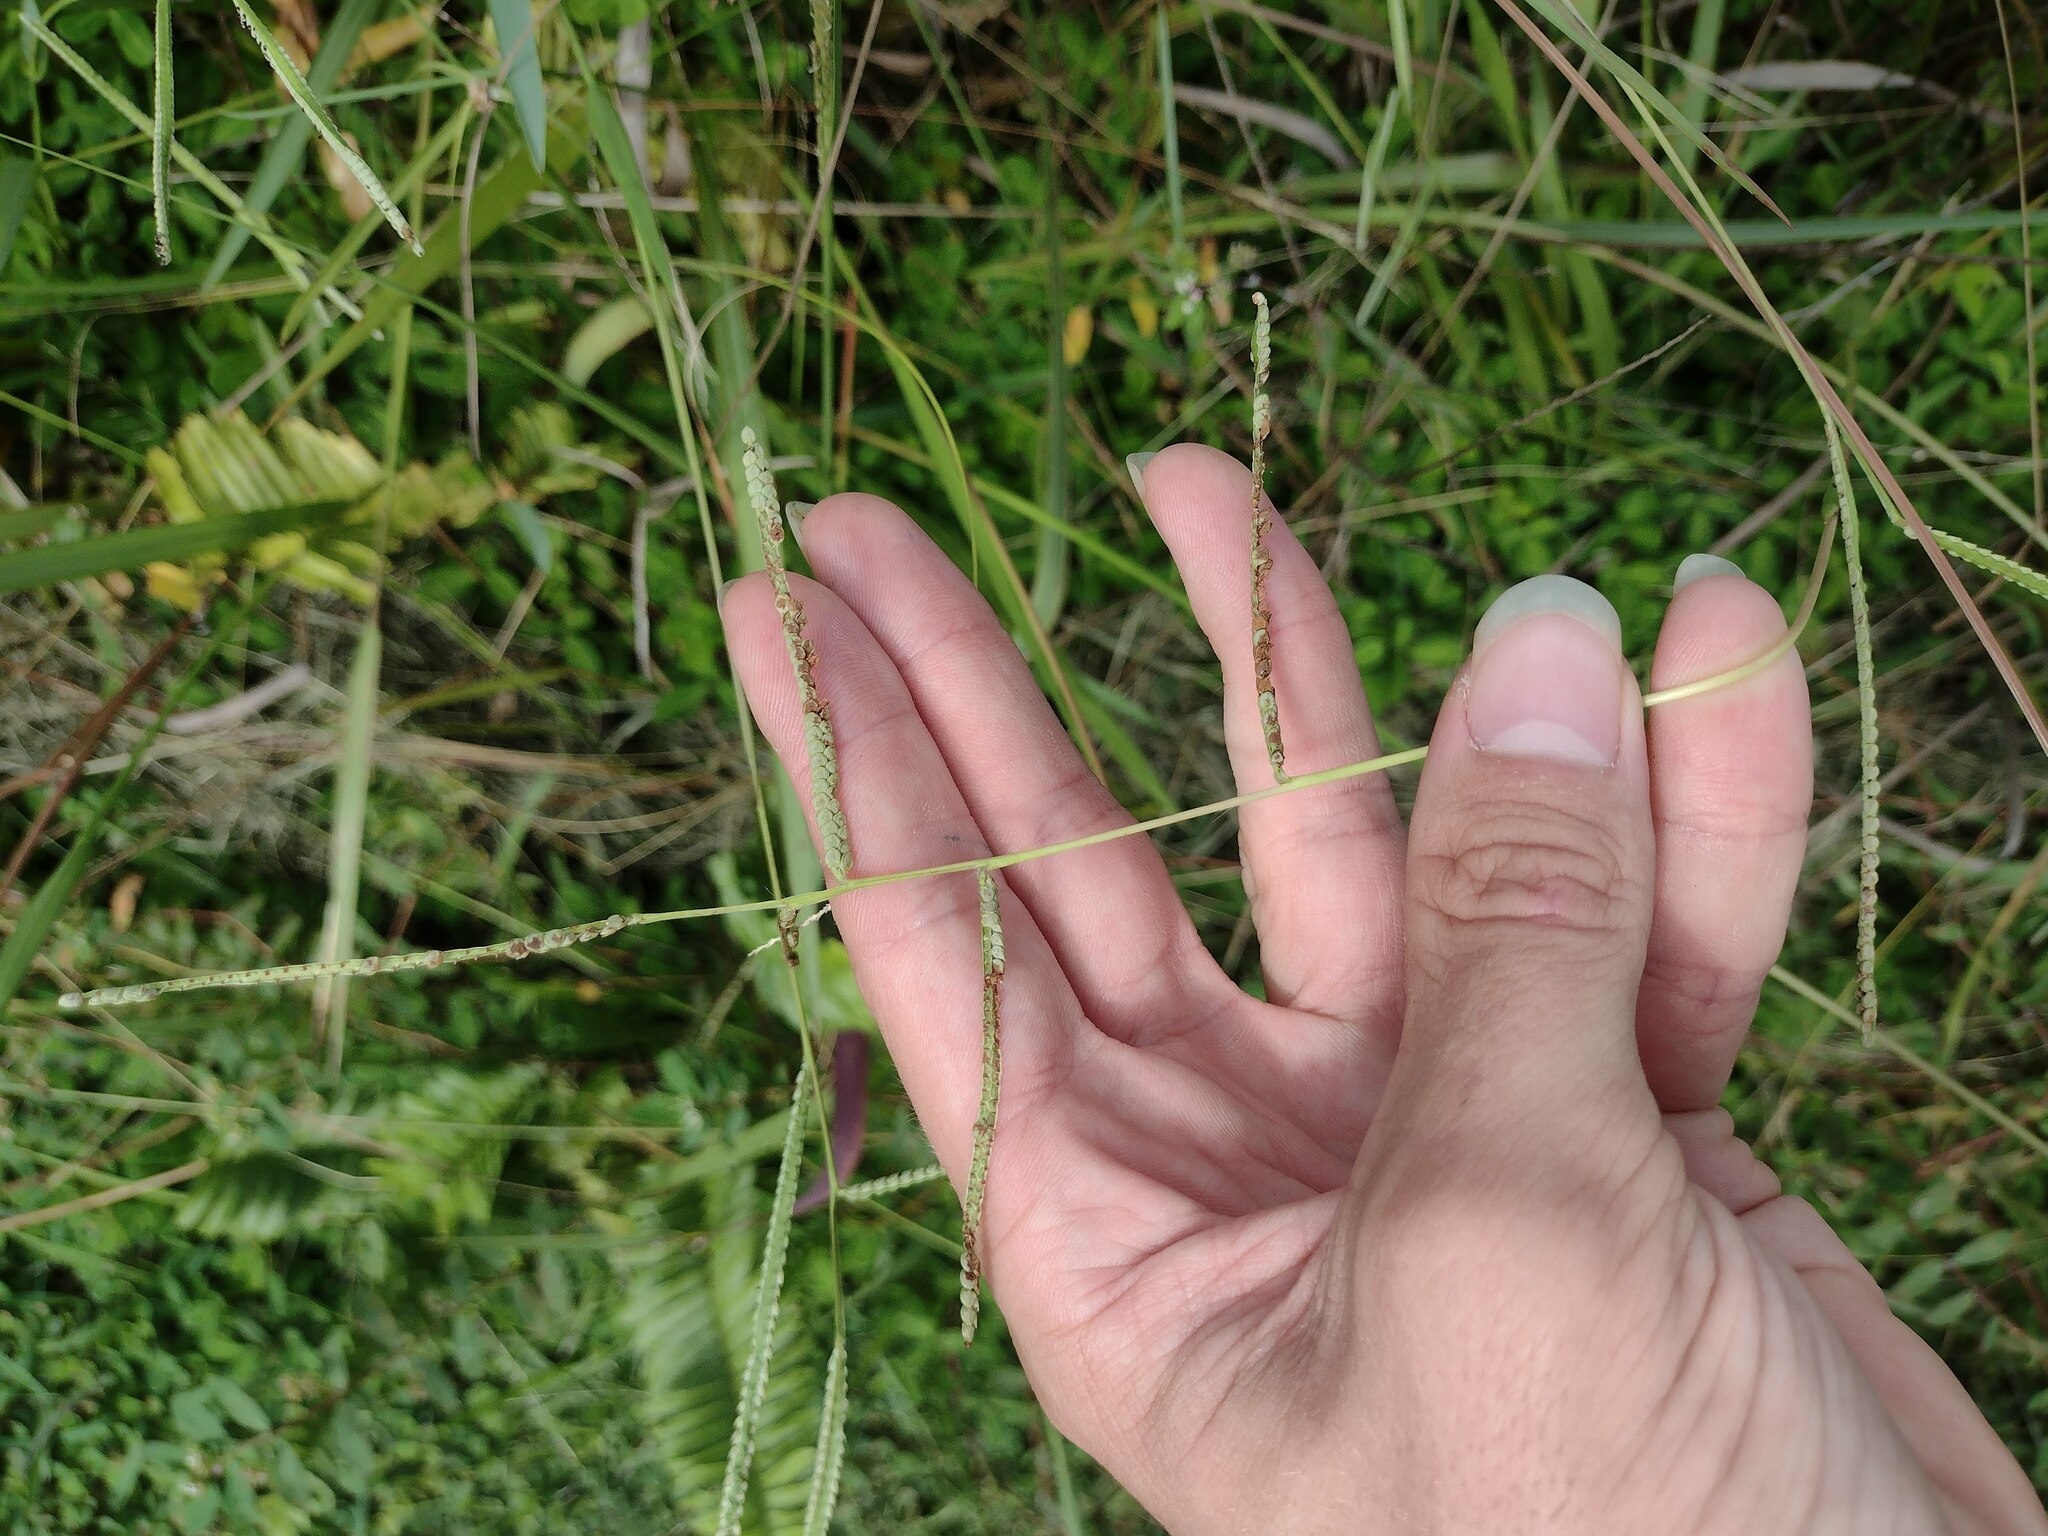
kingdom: Plantae
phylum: Tracheophyta
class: Liliopsida
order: Poales
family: Poaceae
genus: Paspalum
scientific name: Paspalum scrobiculatum
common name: Kodo millet
